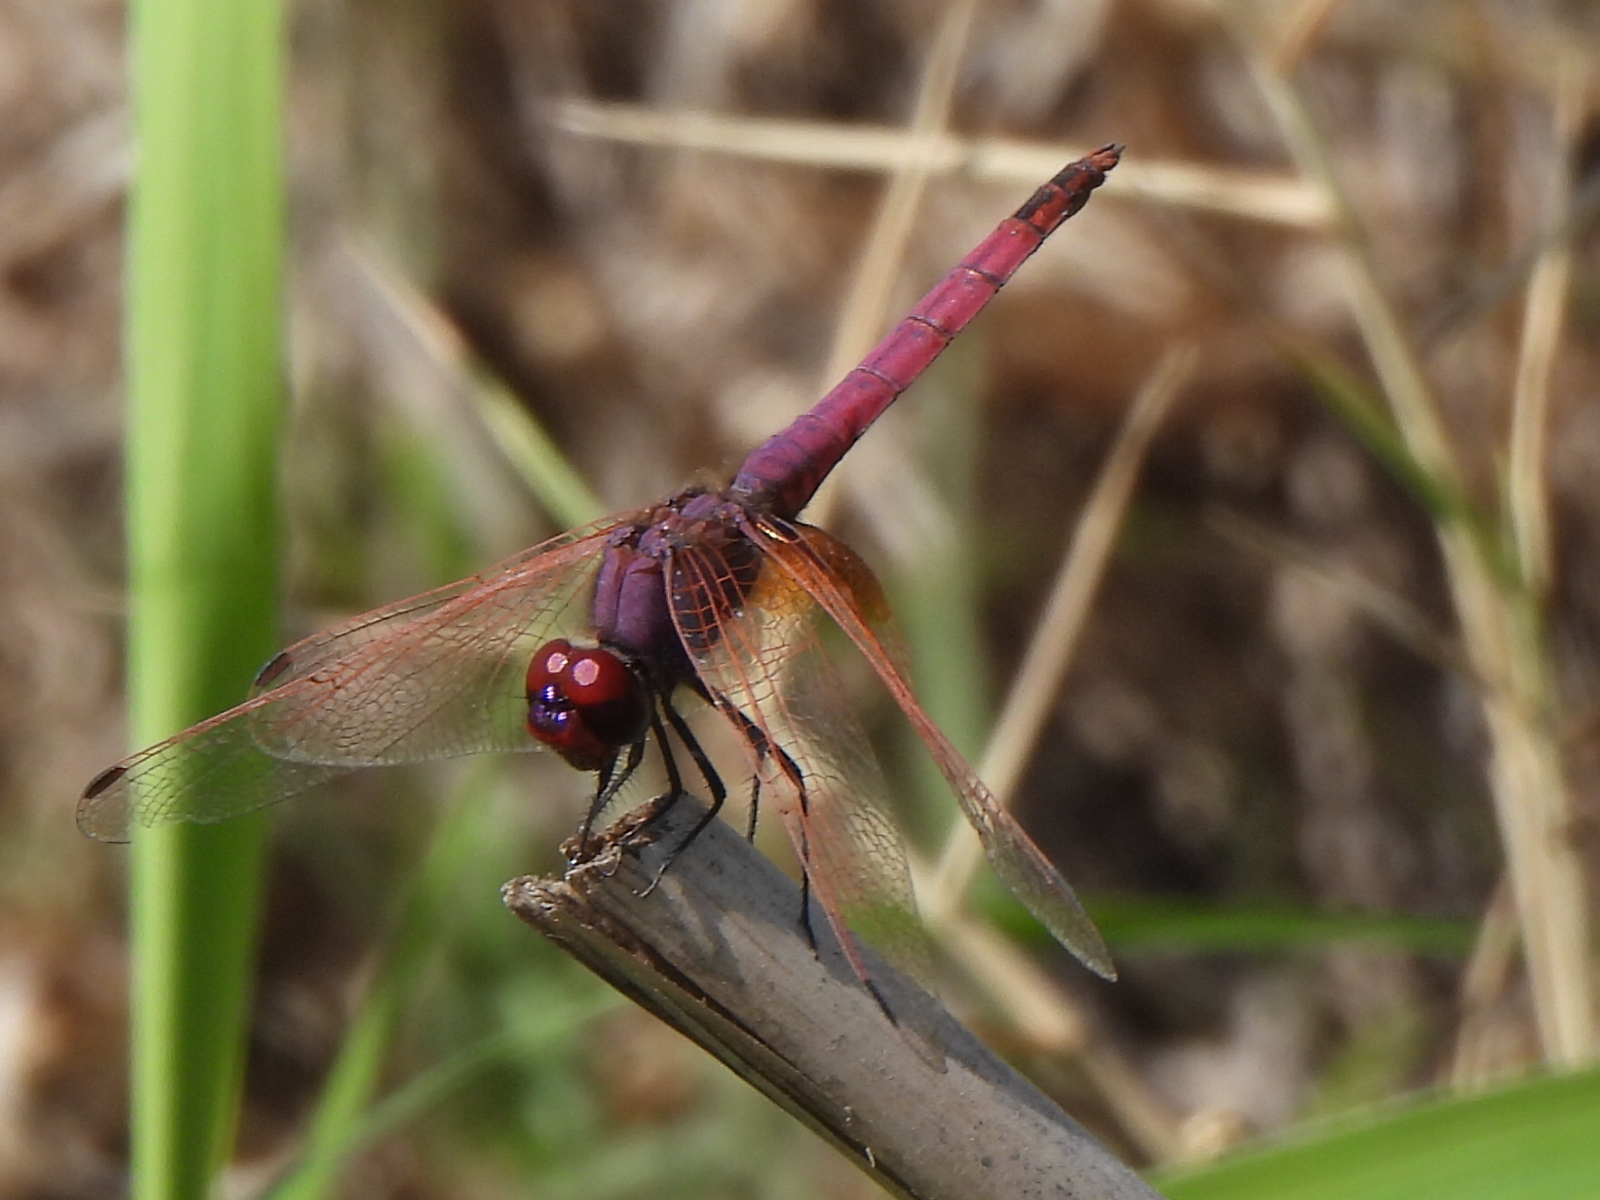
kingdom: Animalia
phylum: Arthropoda
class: Insecta
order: Odonata
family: Libellulidae
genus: Trithemis
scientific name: Trithemis annulata
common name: Violet dropwing
